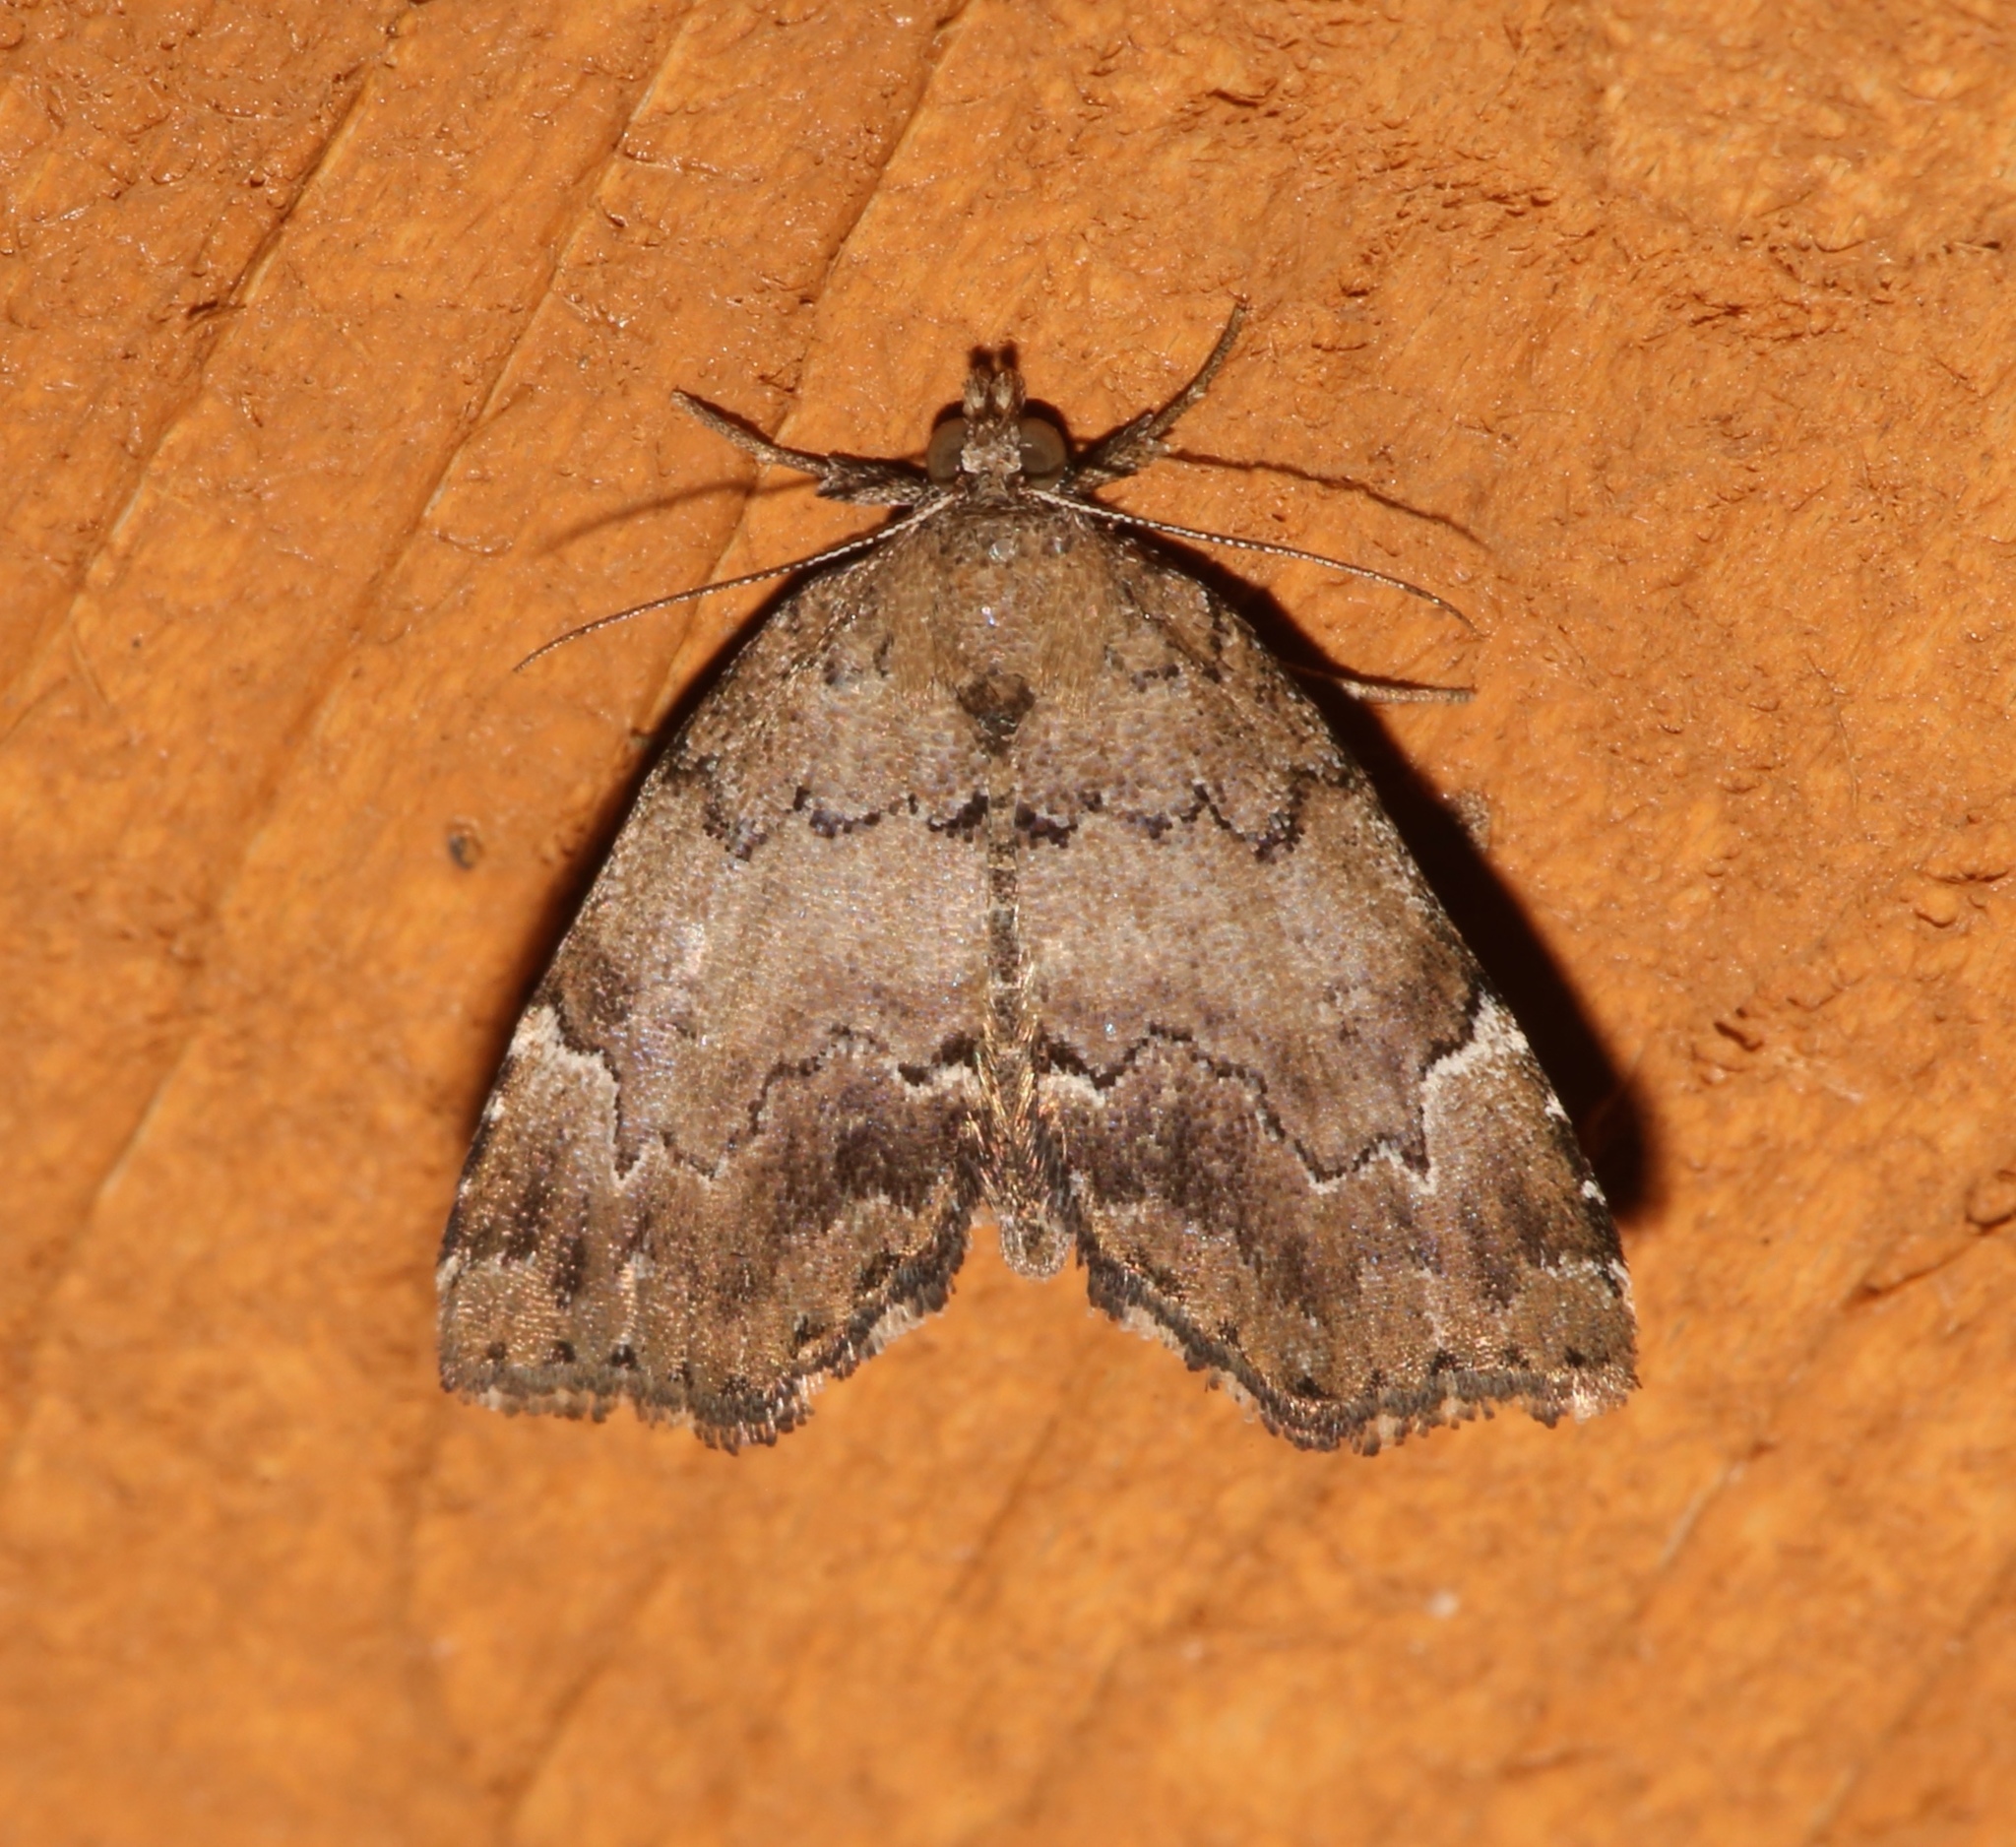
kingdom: Animalia
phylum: Arthropoda
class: Insecta
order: Lepidoptera
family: Erebidae
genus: Cutina
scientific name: Cutina aluticolor
